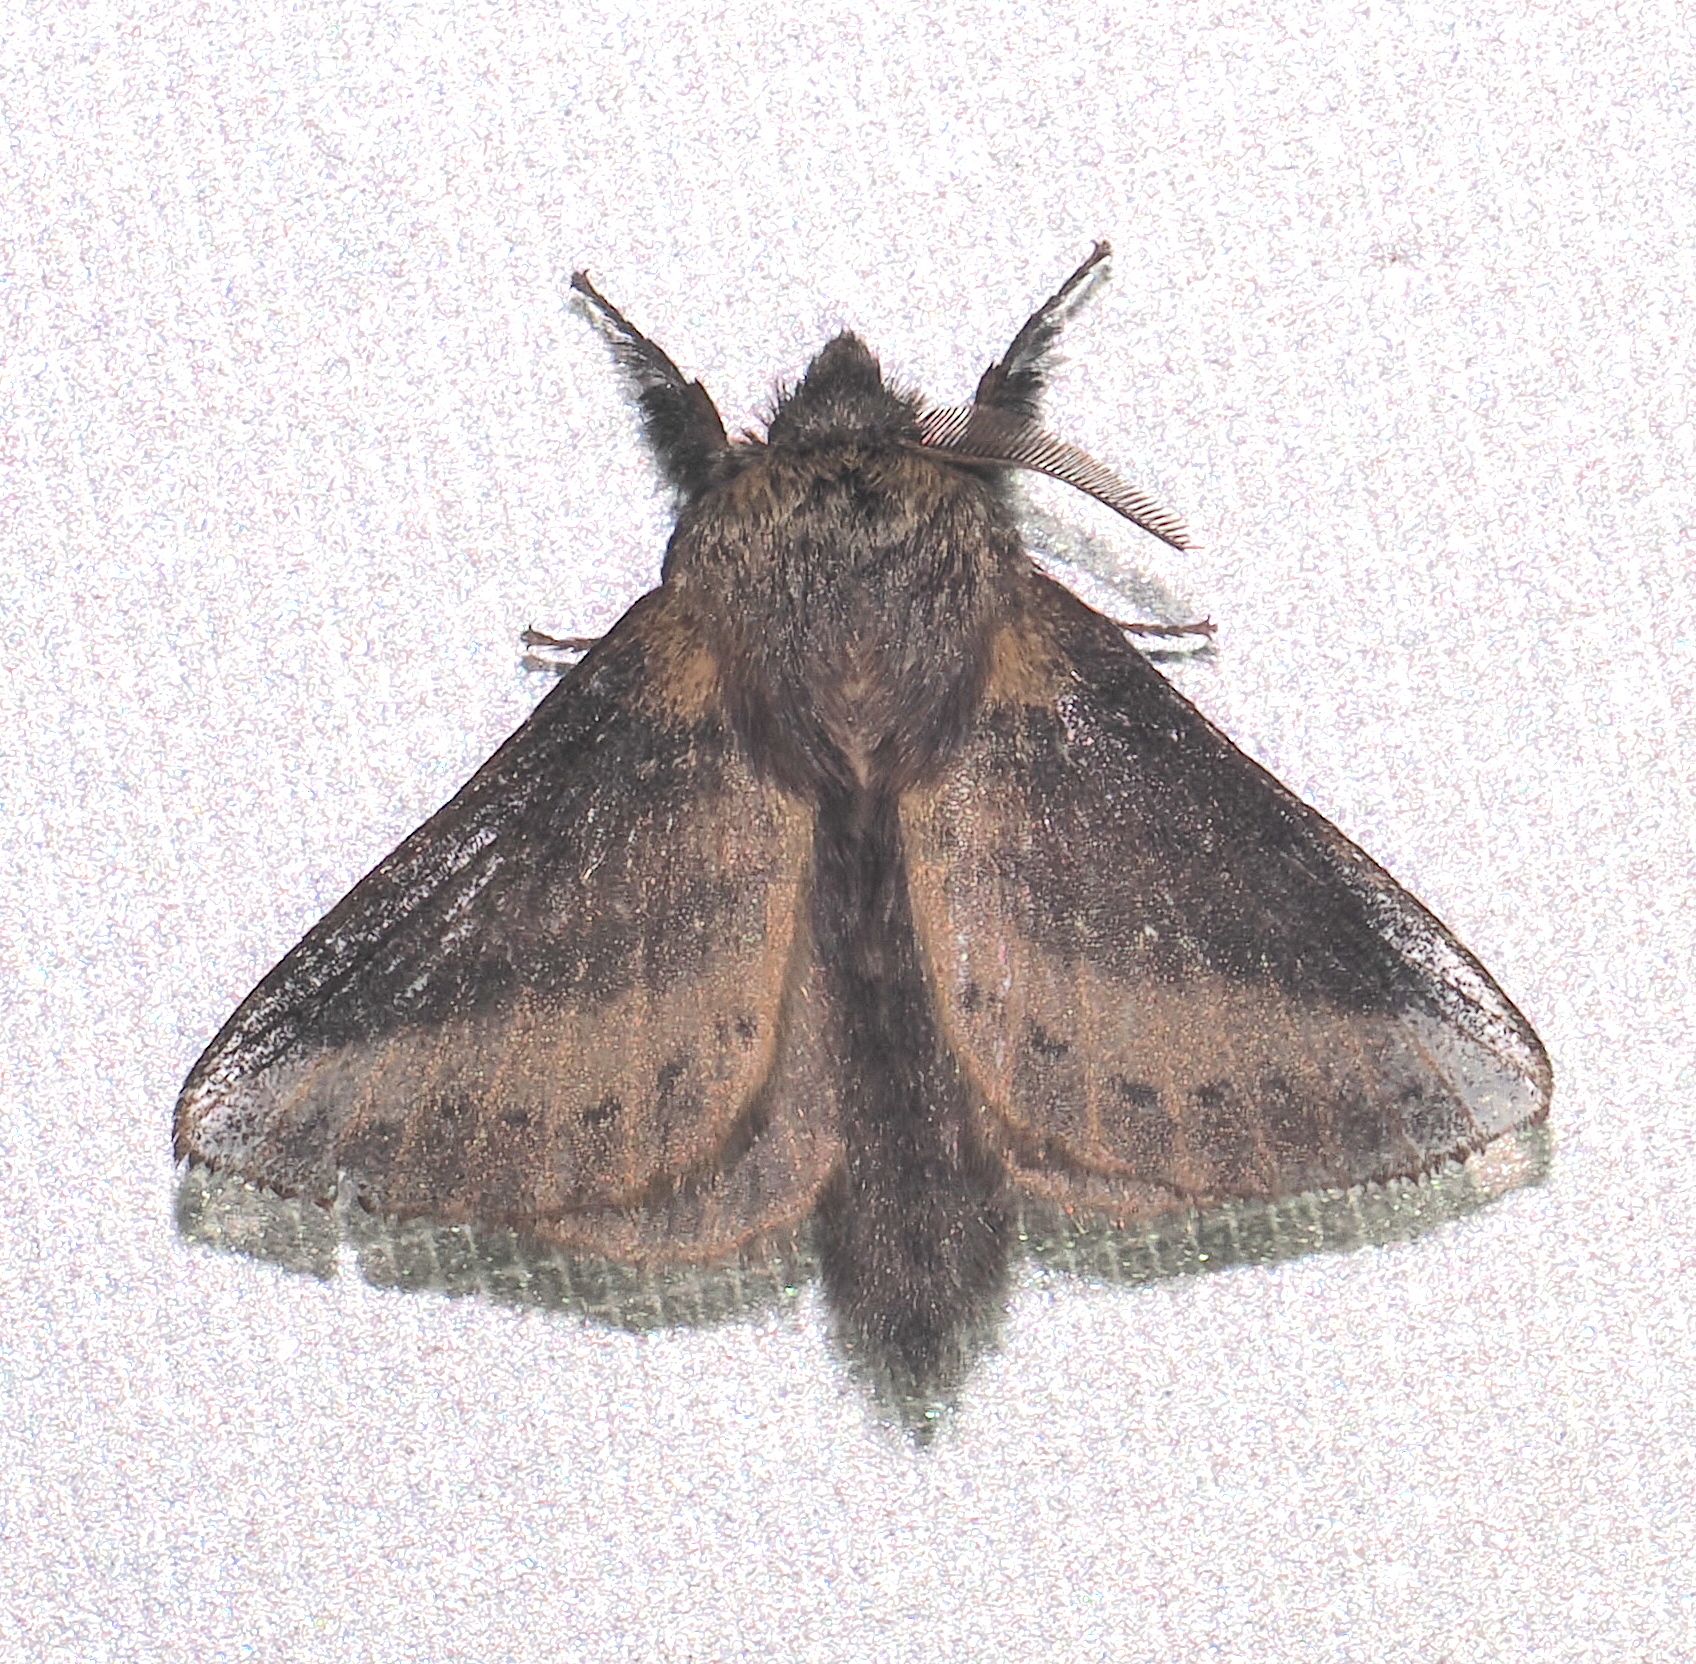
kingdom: Animalia
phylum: Arthropoda
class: Insecta
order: Lepidoptera
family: Lasiocampidae
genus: Norapidia
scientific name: Norapidia divisata
